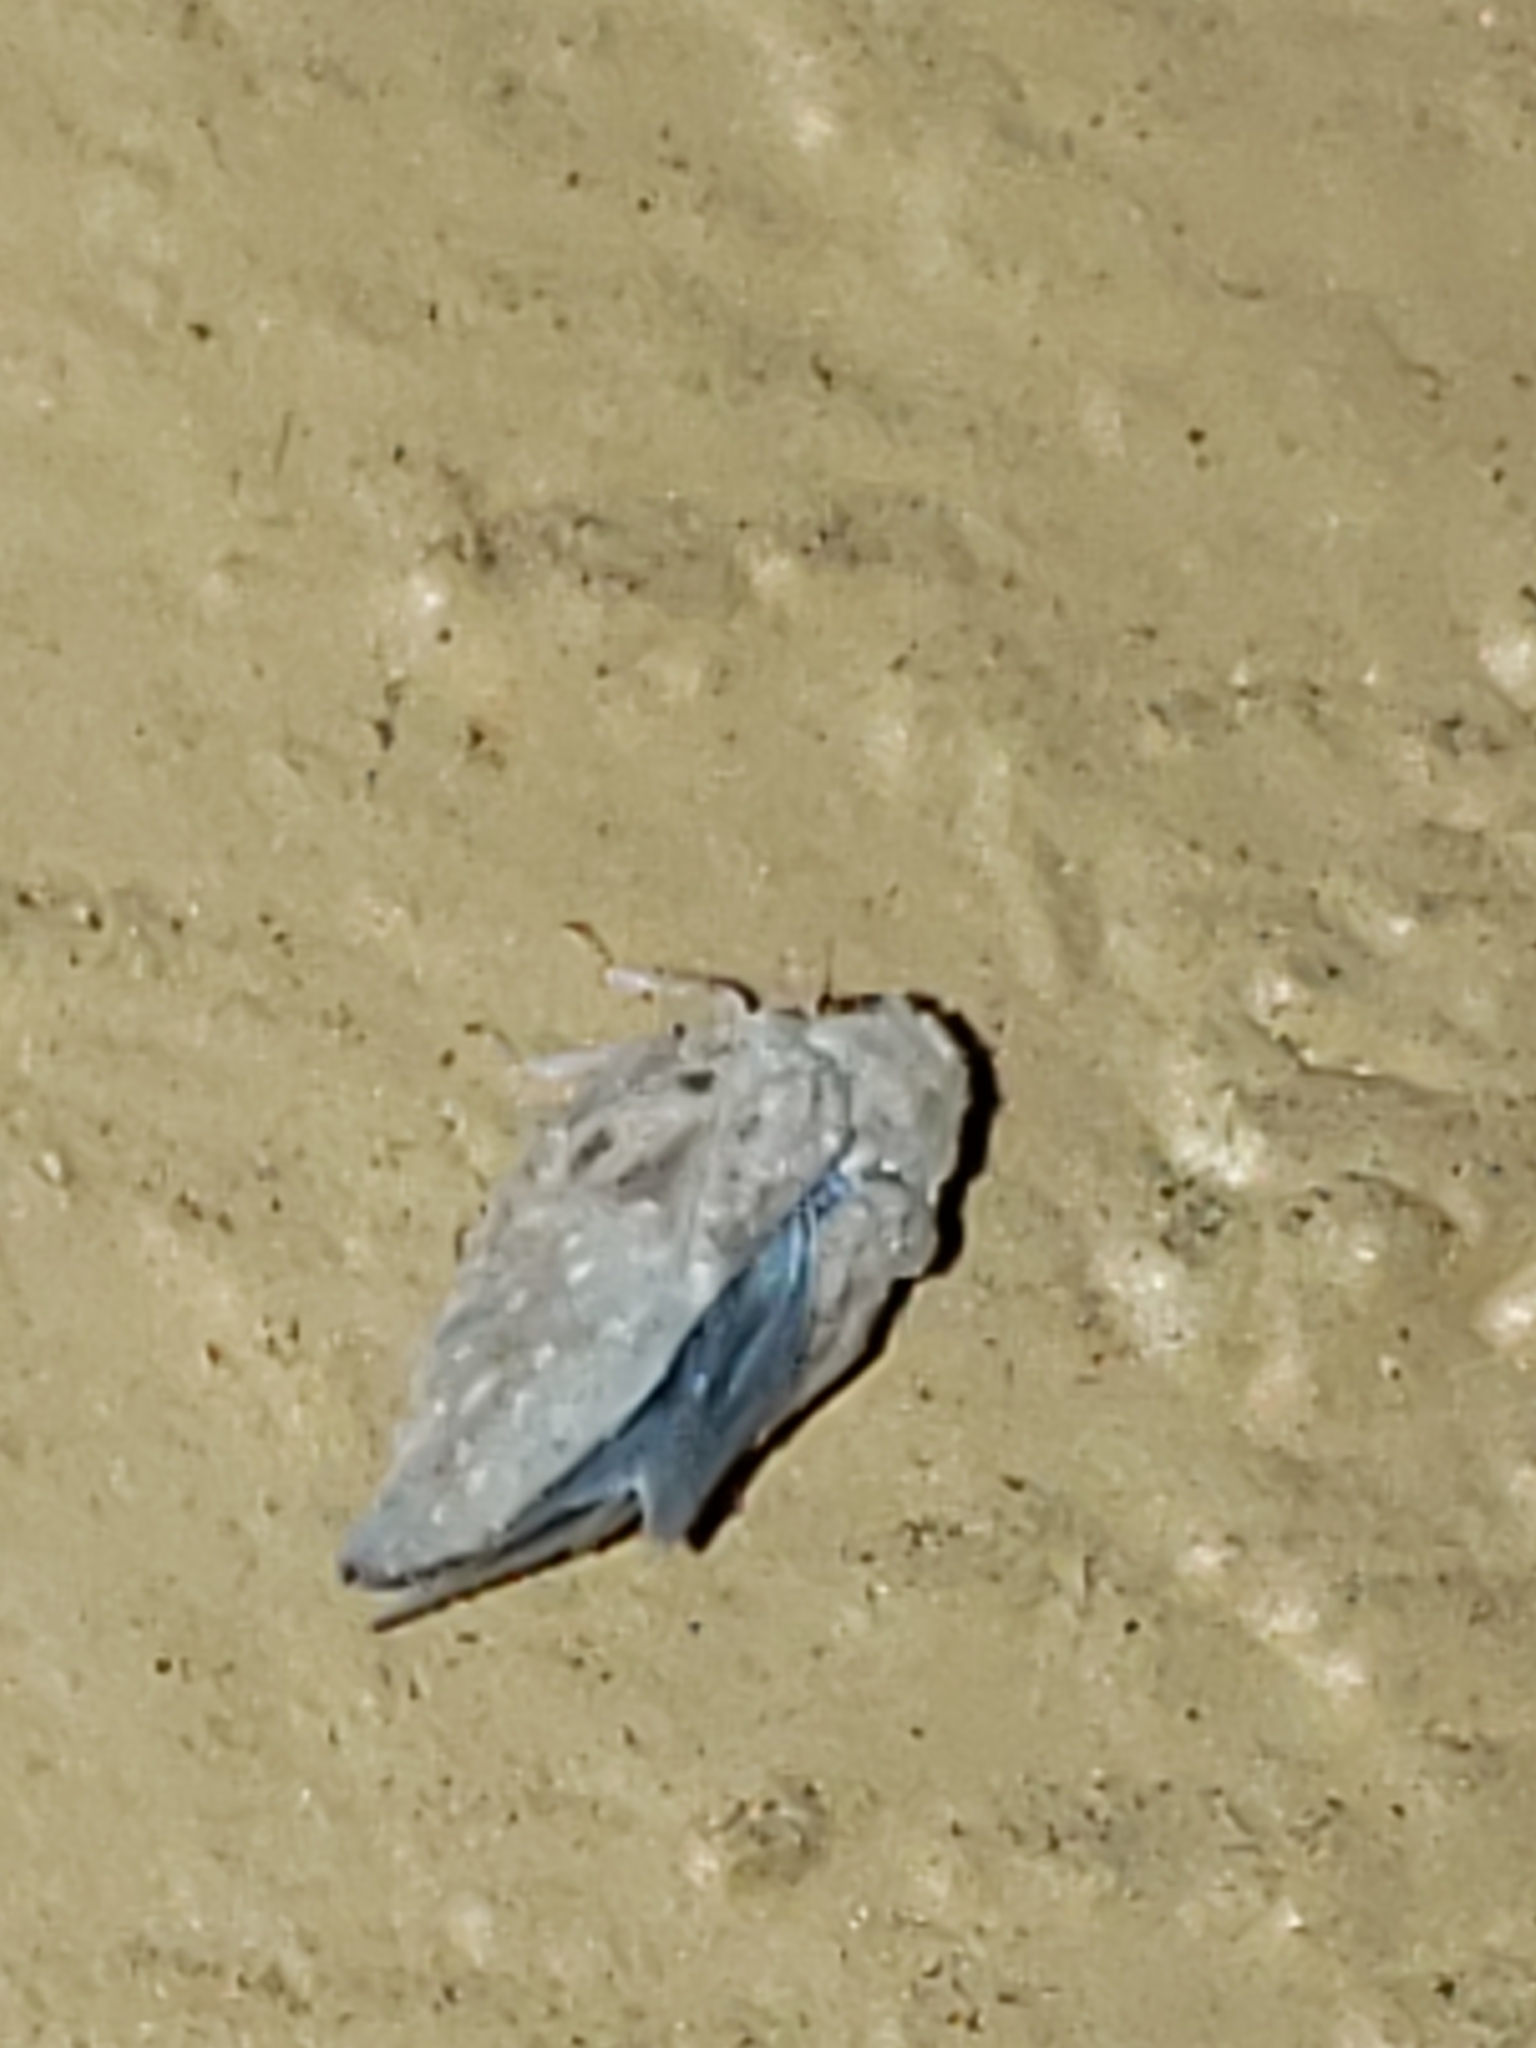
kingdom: Animalia
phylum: Arthropoda
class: Insecta
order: Hemiptera
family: Flatidae
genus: Metcalfa
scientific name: Metcalfa pruinosa
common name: Citrus flatid planthopper
